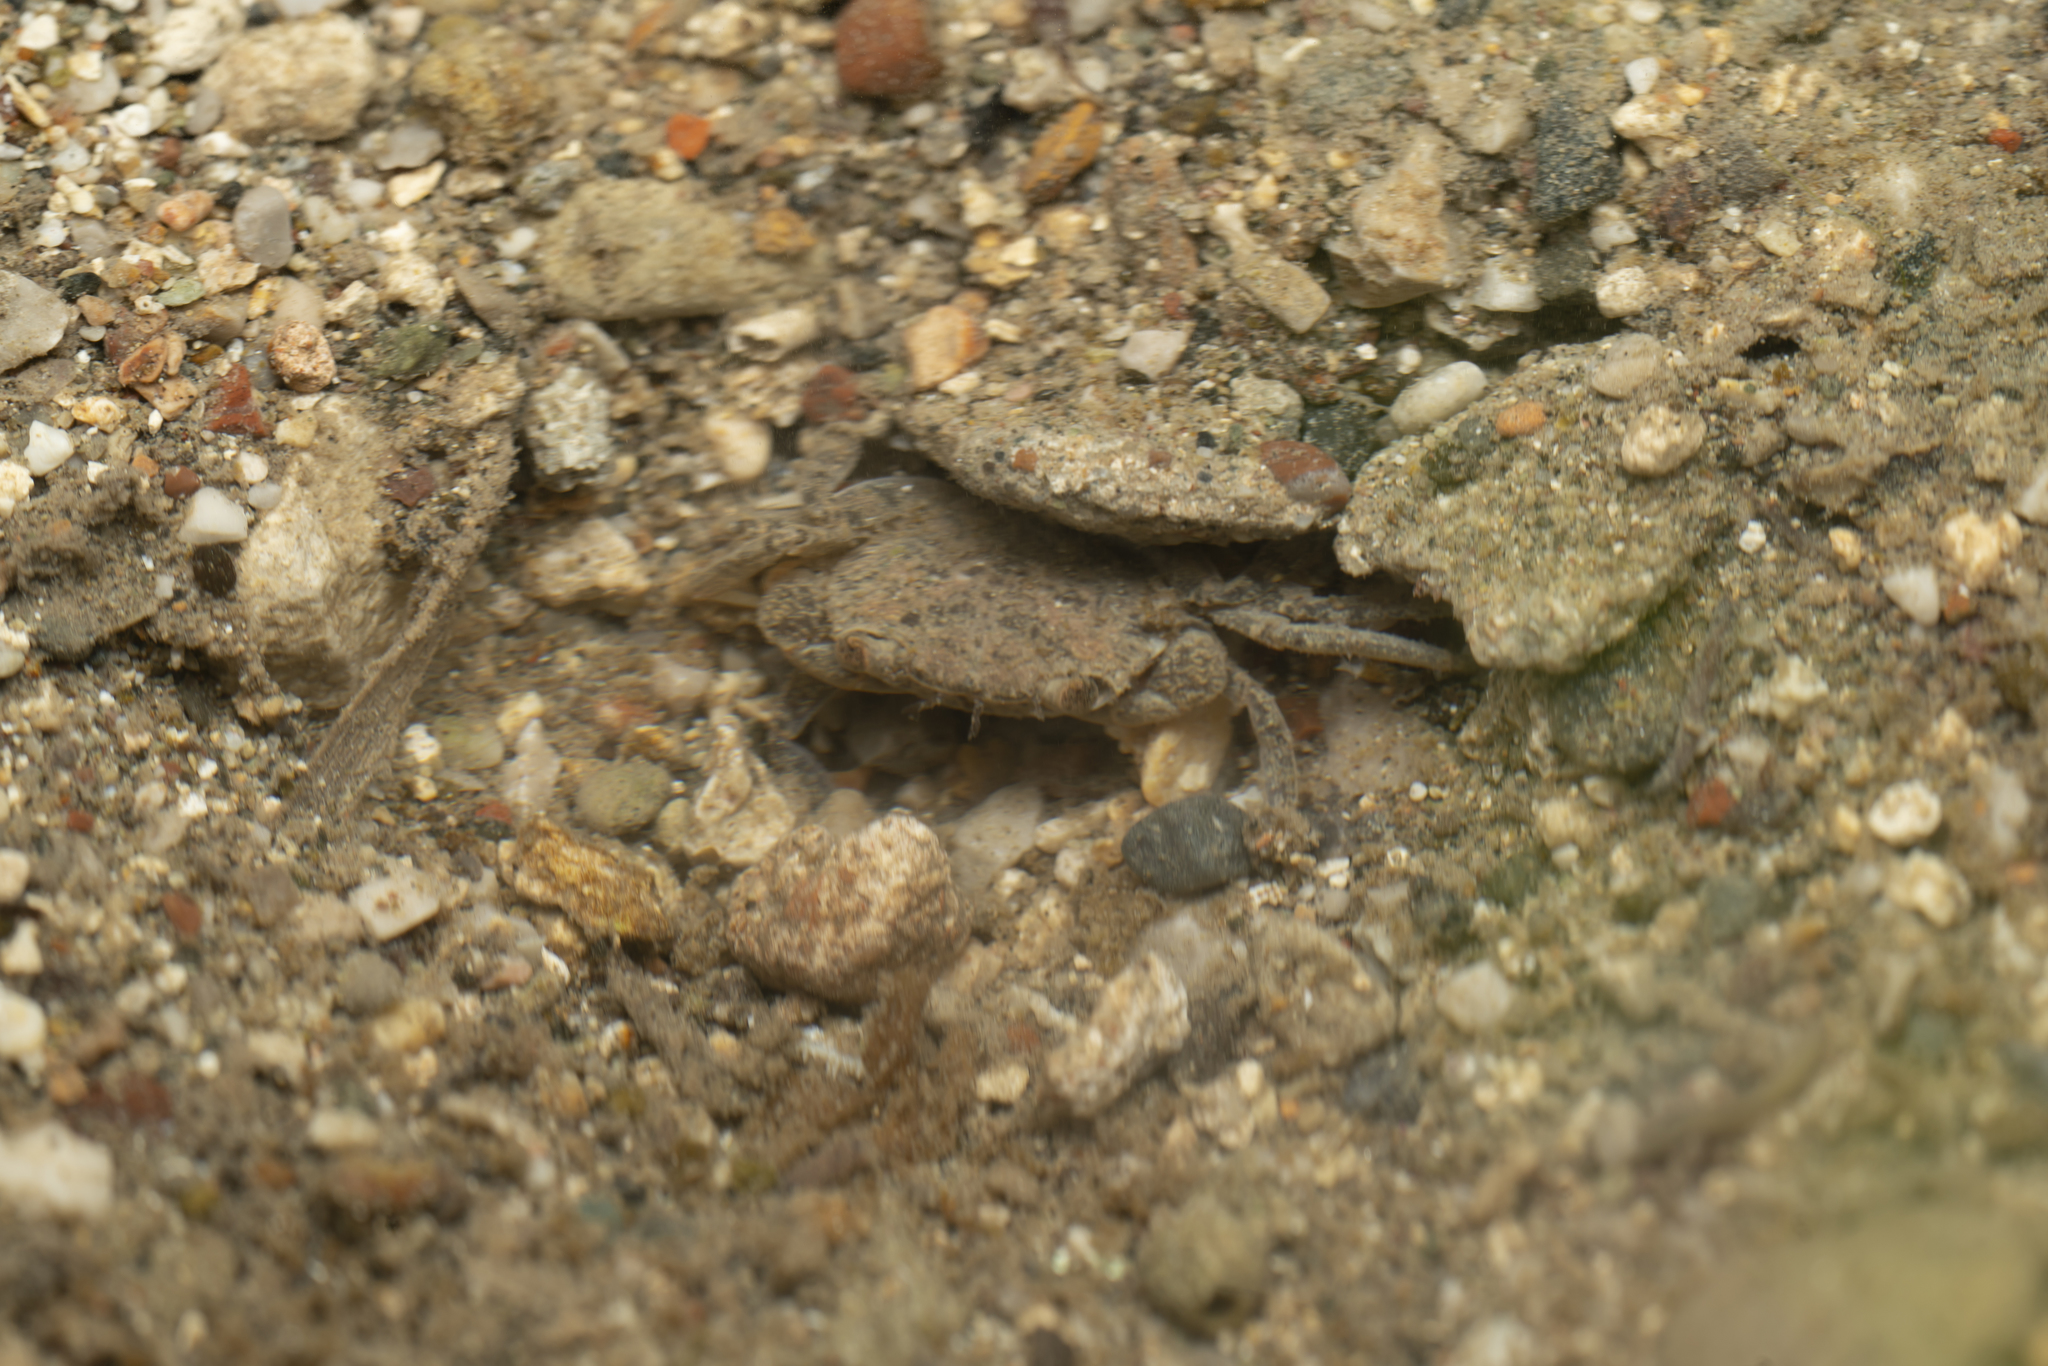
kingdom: Animalia
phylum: Arthropoda
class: Malacostraca
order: Decapoda
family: Potamidae
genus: Potamon
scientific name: Potamon rhodium
